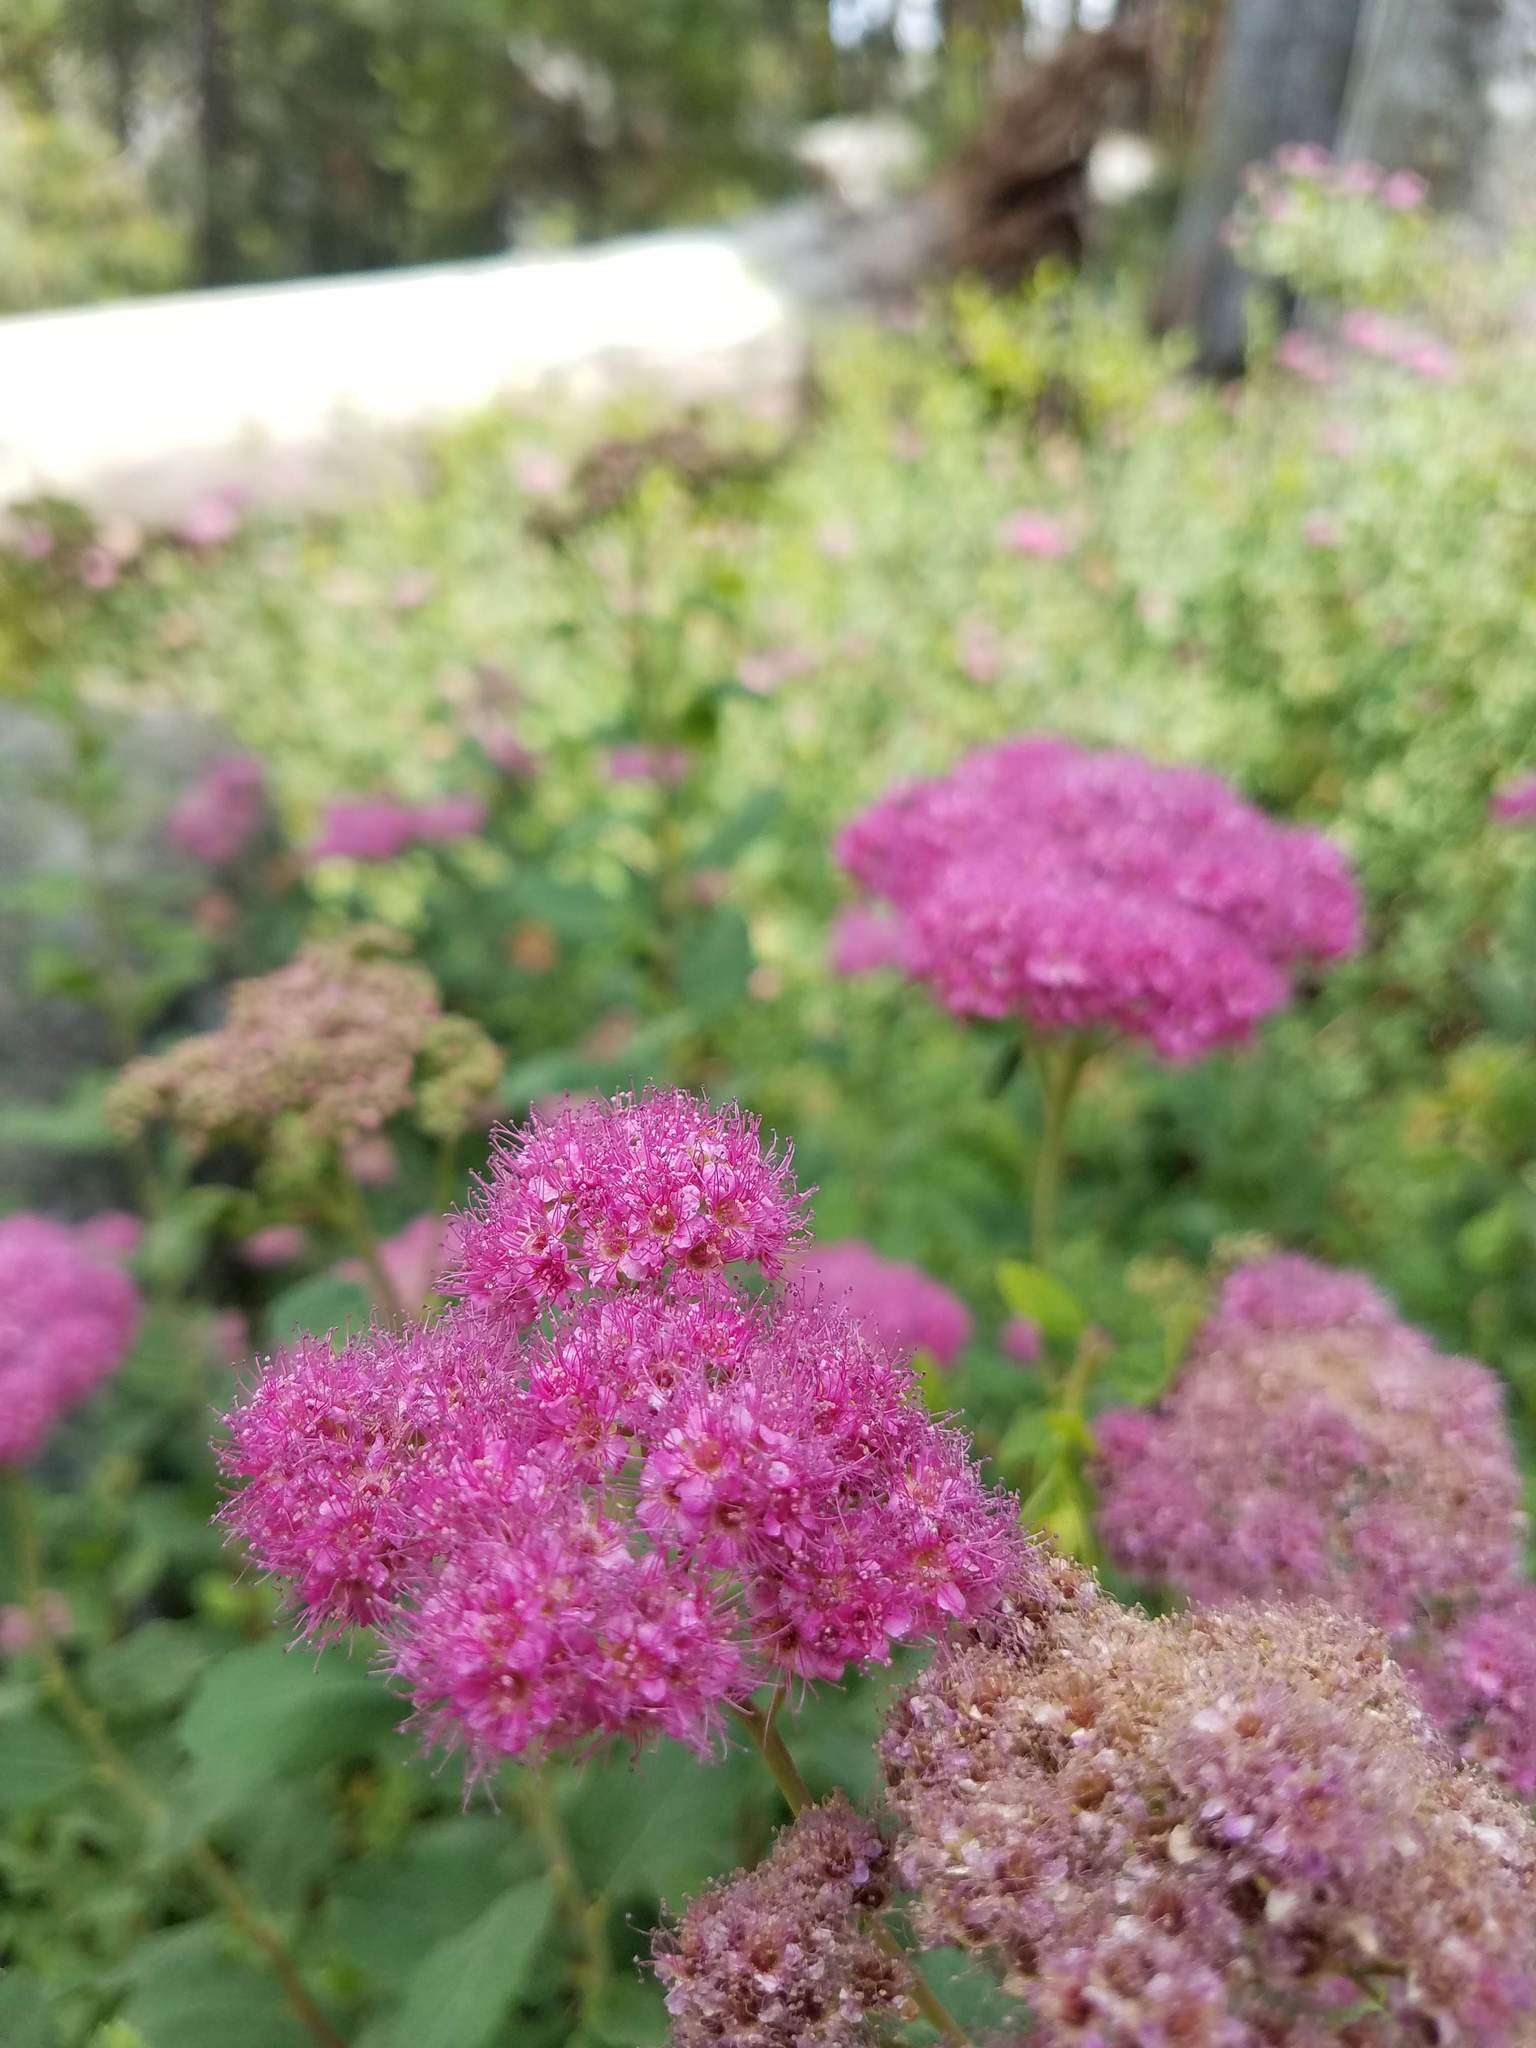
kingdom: Plantae
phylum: Tracheophyta
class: Magnoliopsida
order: Rosales
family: Rosaceae
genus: Spiraea
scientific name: Spiraea splendens
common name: Subalpine meadowsweet
